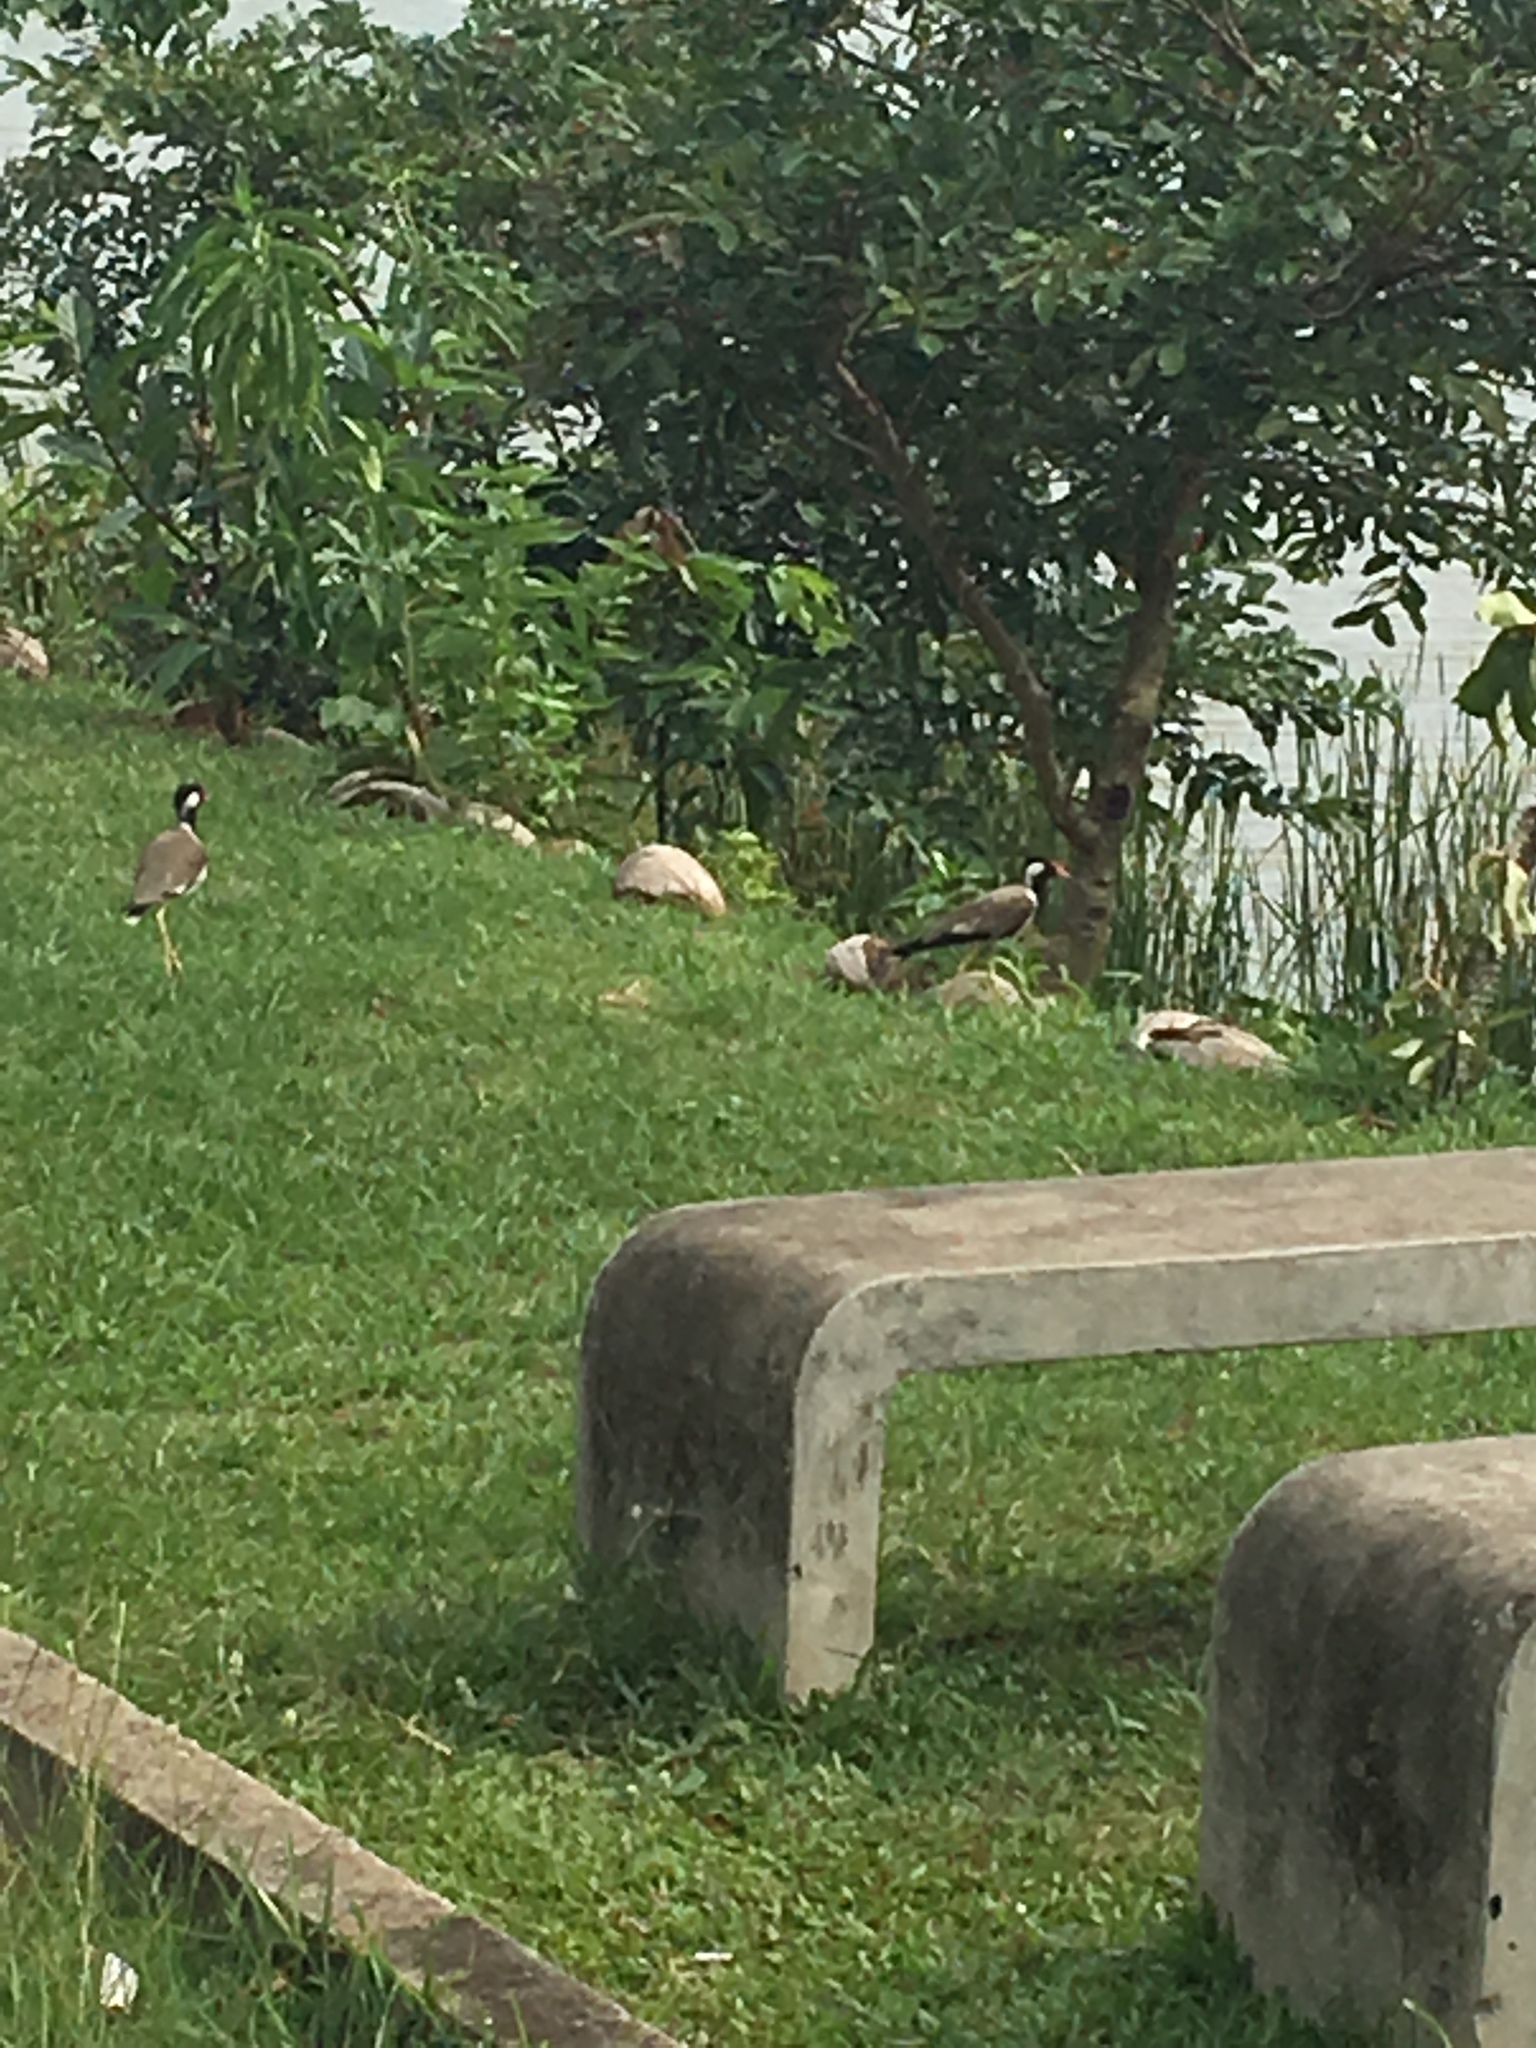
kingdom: Animalia
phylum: Chordata
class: Aves
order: Charadriiformes
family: Charadriidae
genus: Vanellus
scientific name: Vanellus indicus
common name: Red-wattled lapwing
